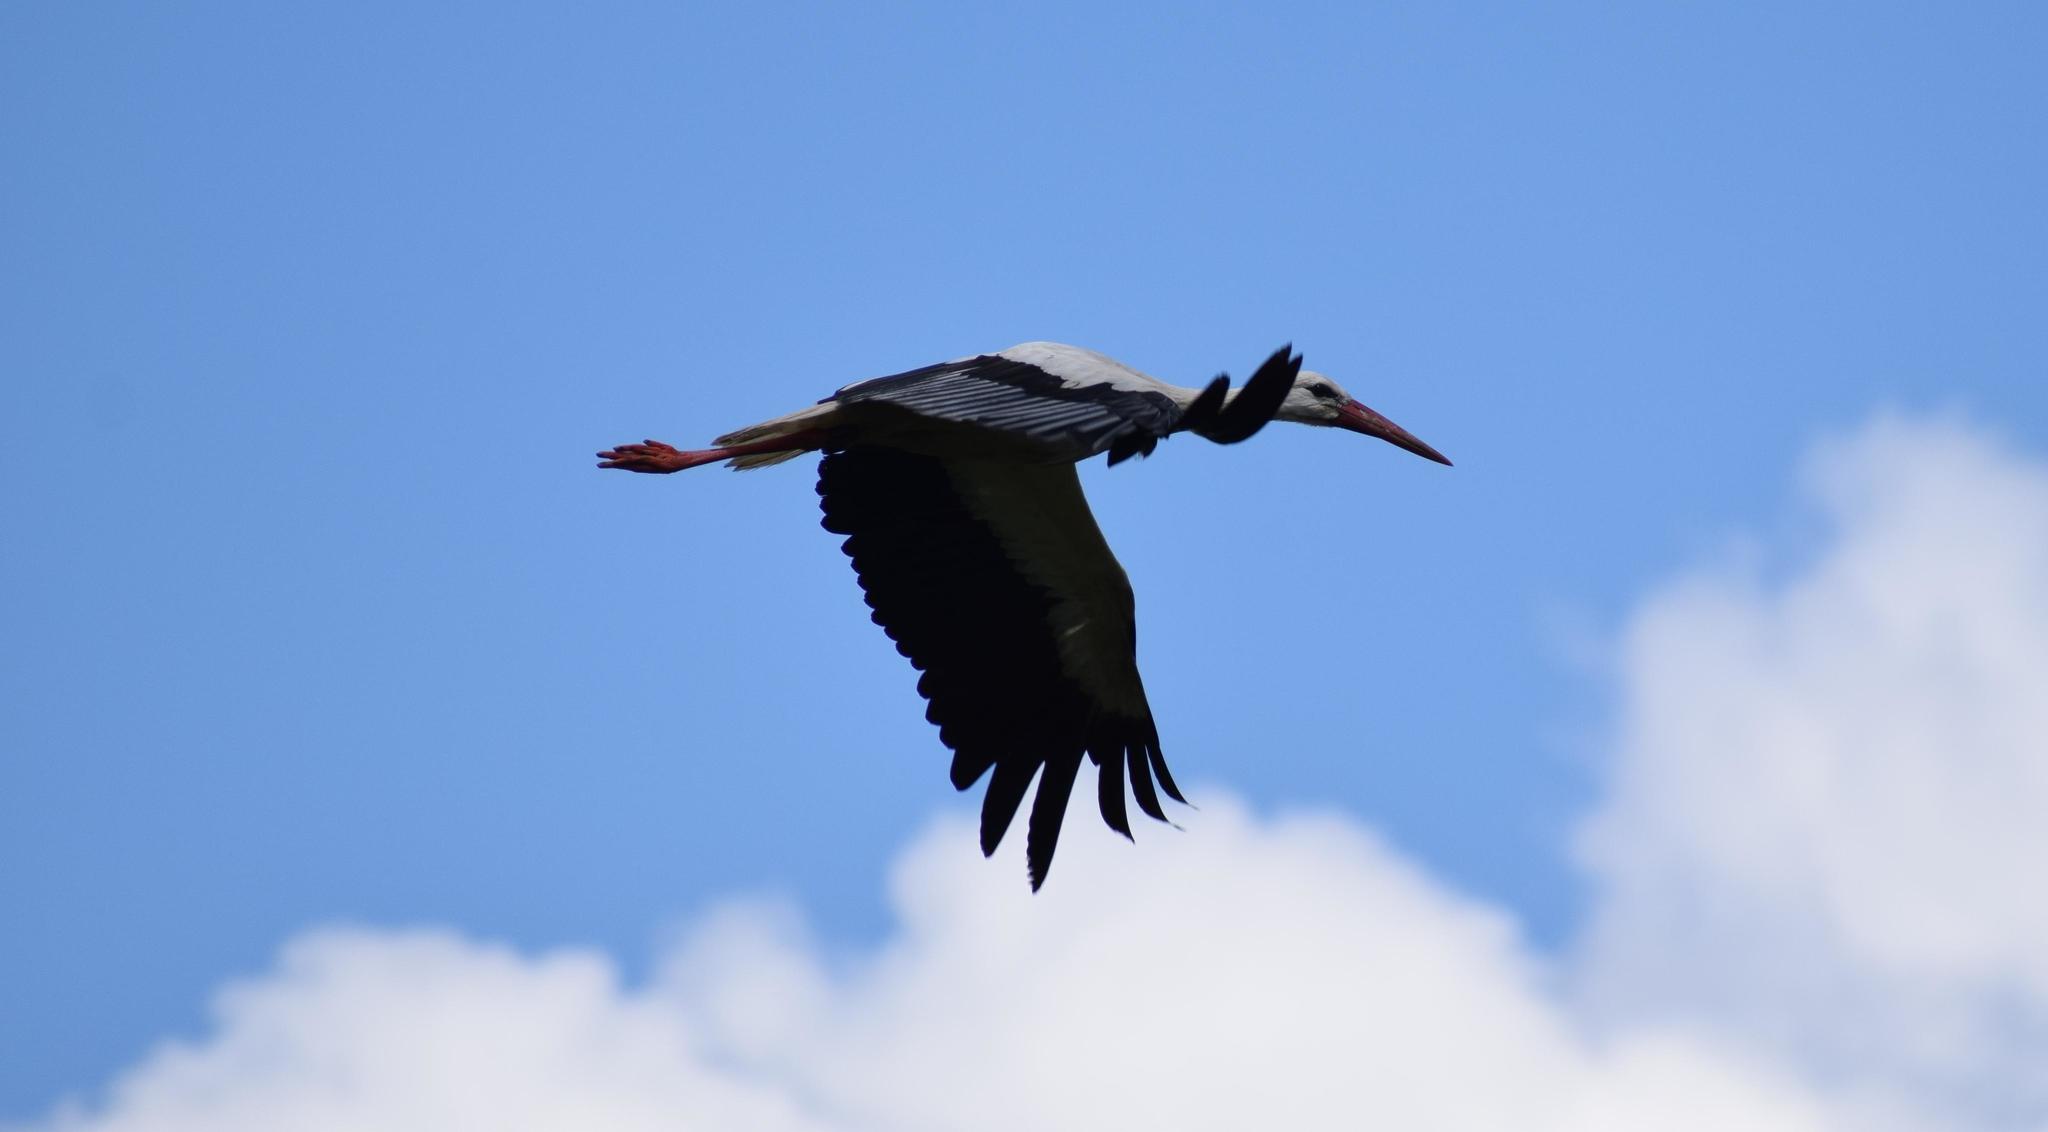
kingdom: Animalia
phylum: Chordata
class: Aves
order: Ciconiiformes
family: Ciconiidae
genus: Ciconia
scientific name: Ciconia ciconia
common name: White stork
